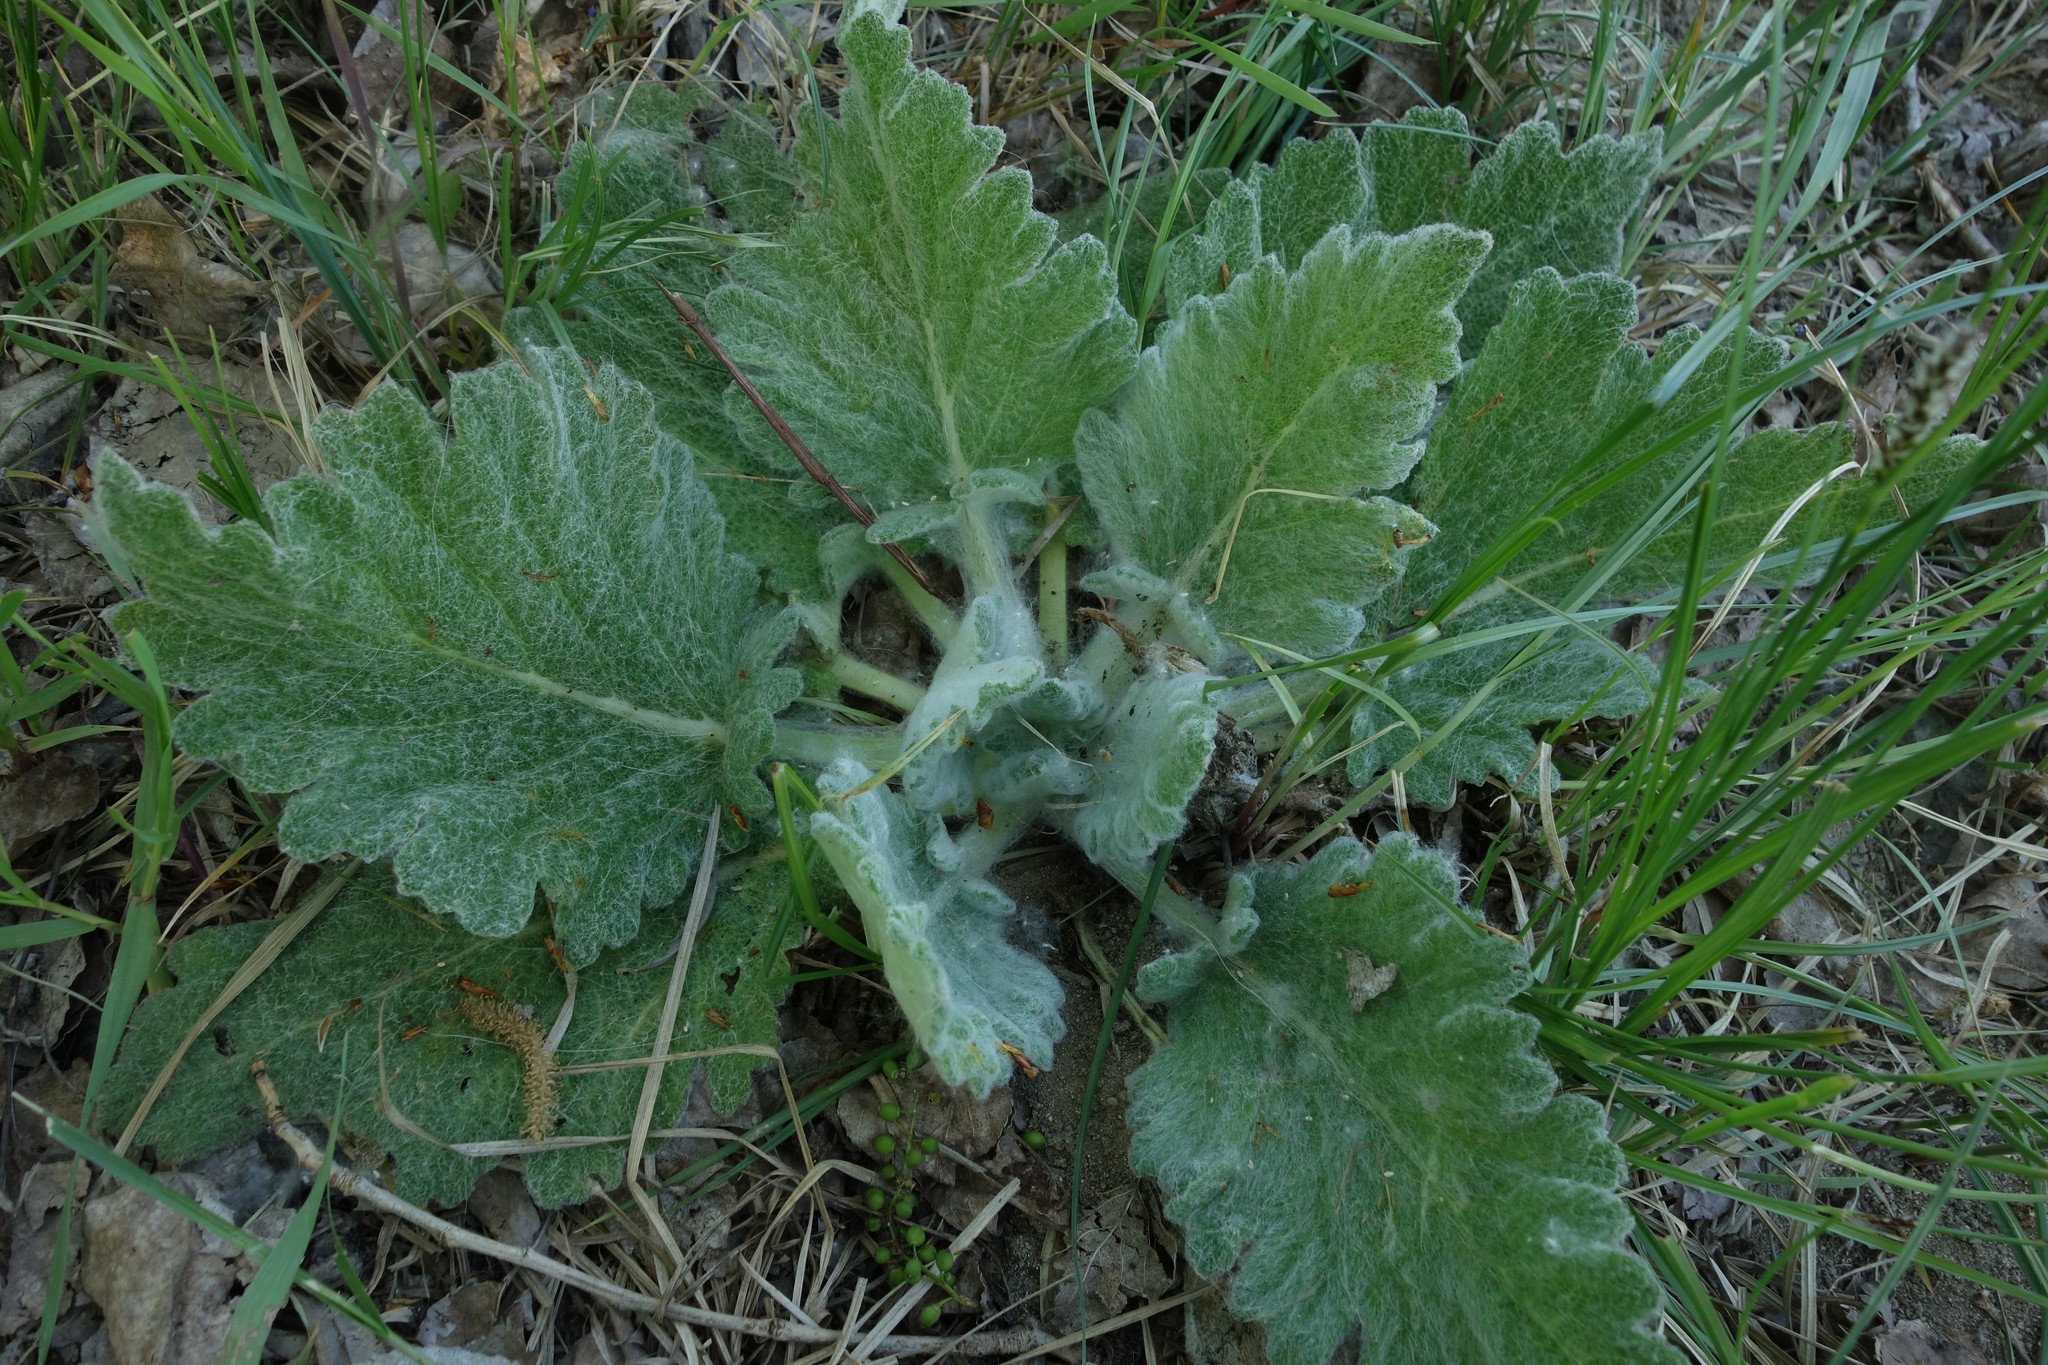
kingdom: Plantae
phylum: Tracheophyta
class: Magnoliopsida
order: Lamiales
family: Lamiaceae
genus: Salvia
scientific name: Salvia aethiopis
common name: Mediterranean sage
